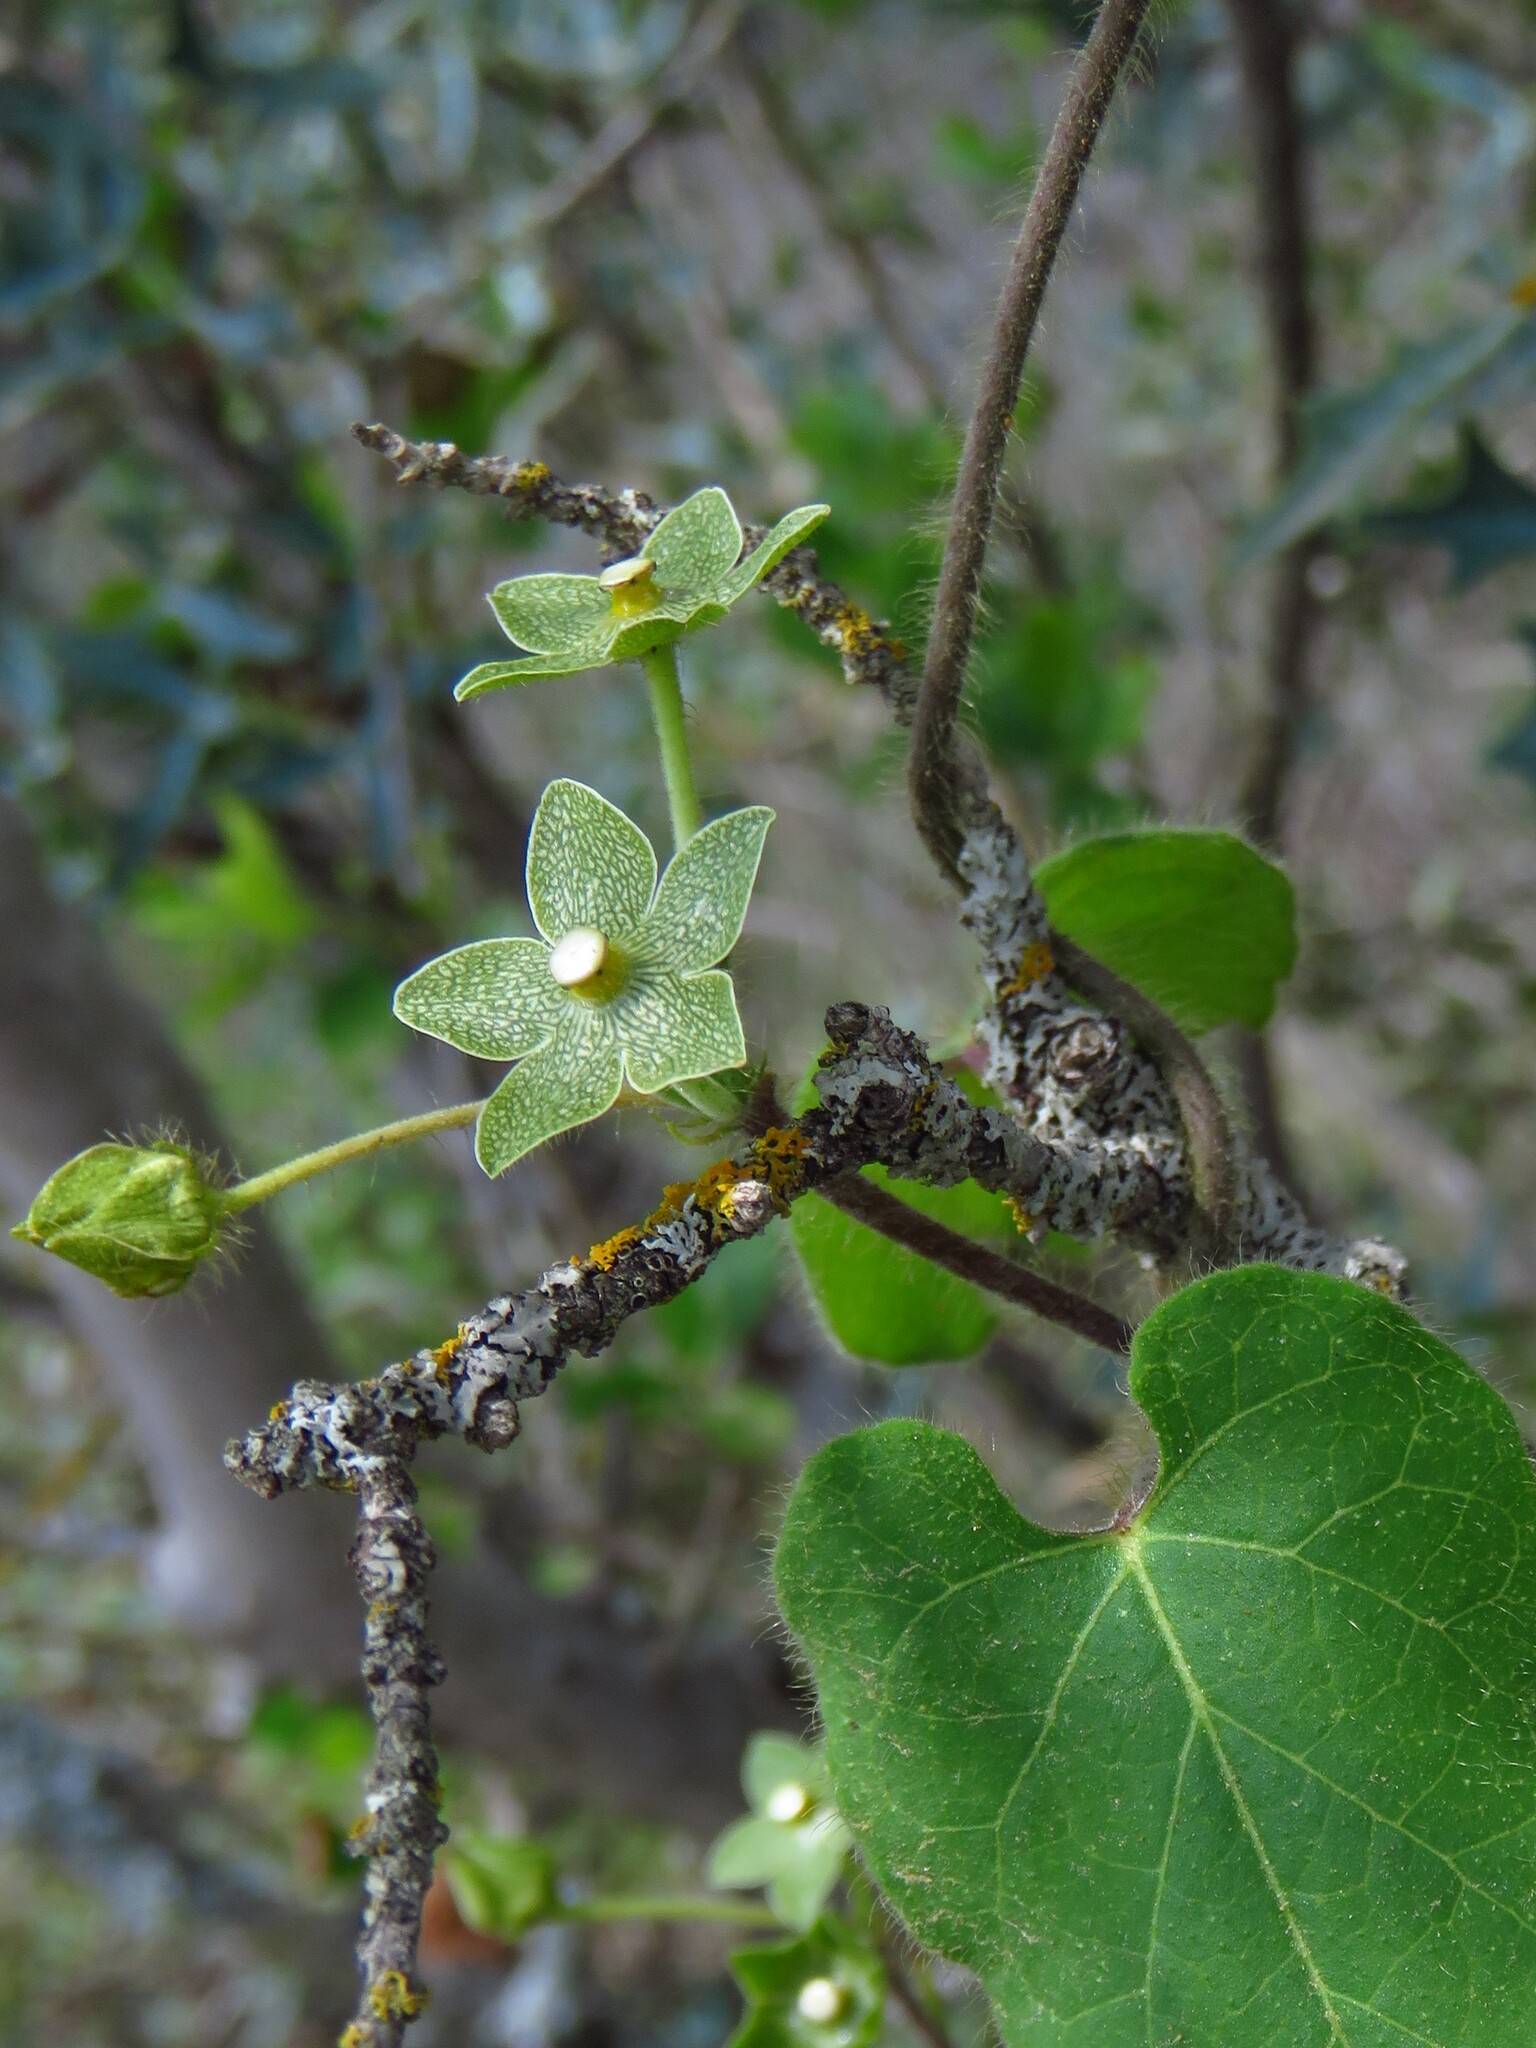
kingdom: Plantae
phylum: Tracheophyta
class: Magnoliopsida
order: Gentianales
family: Apocynaceae
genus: Dictyanthus
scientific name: Dictyanthus reticulatus
